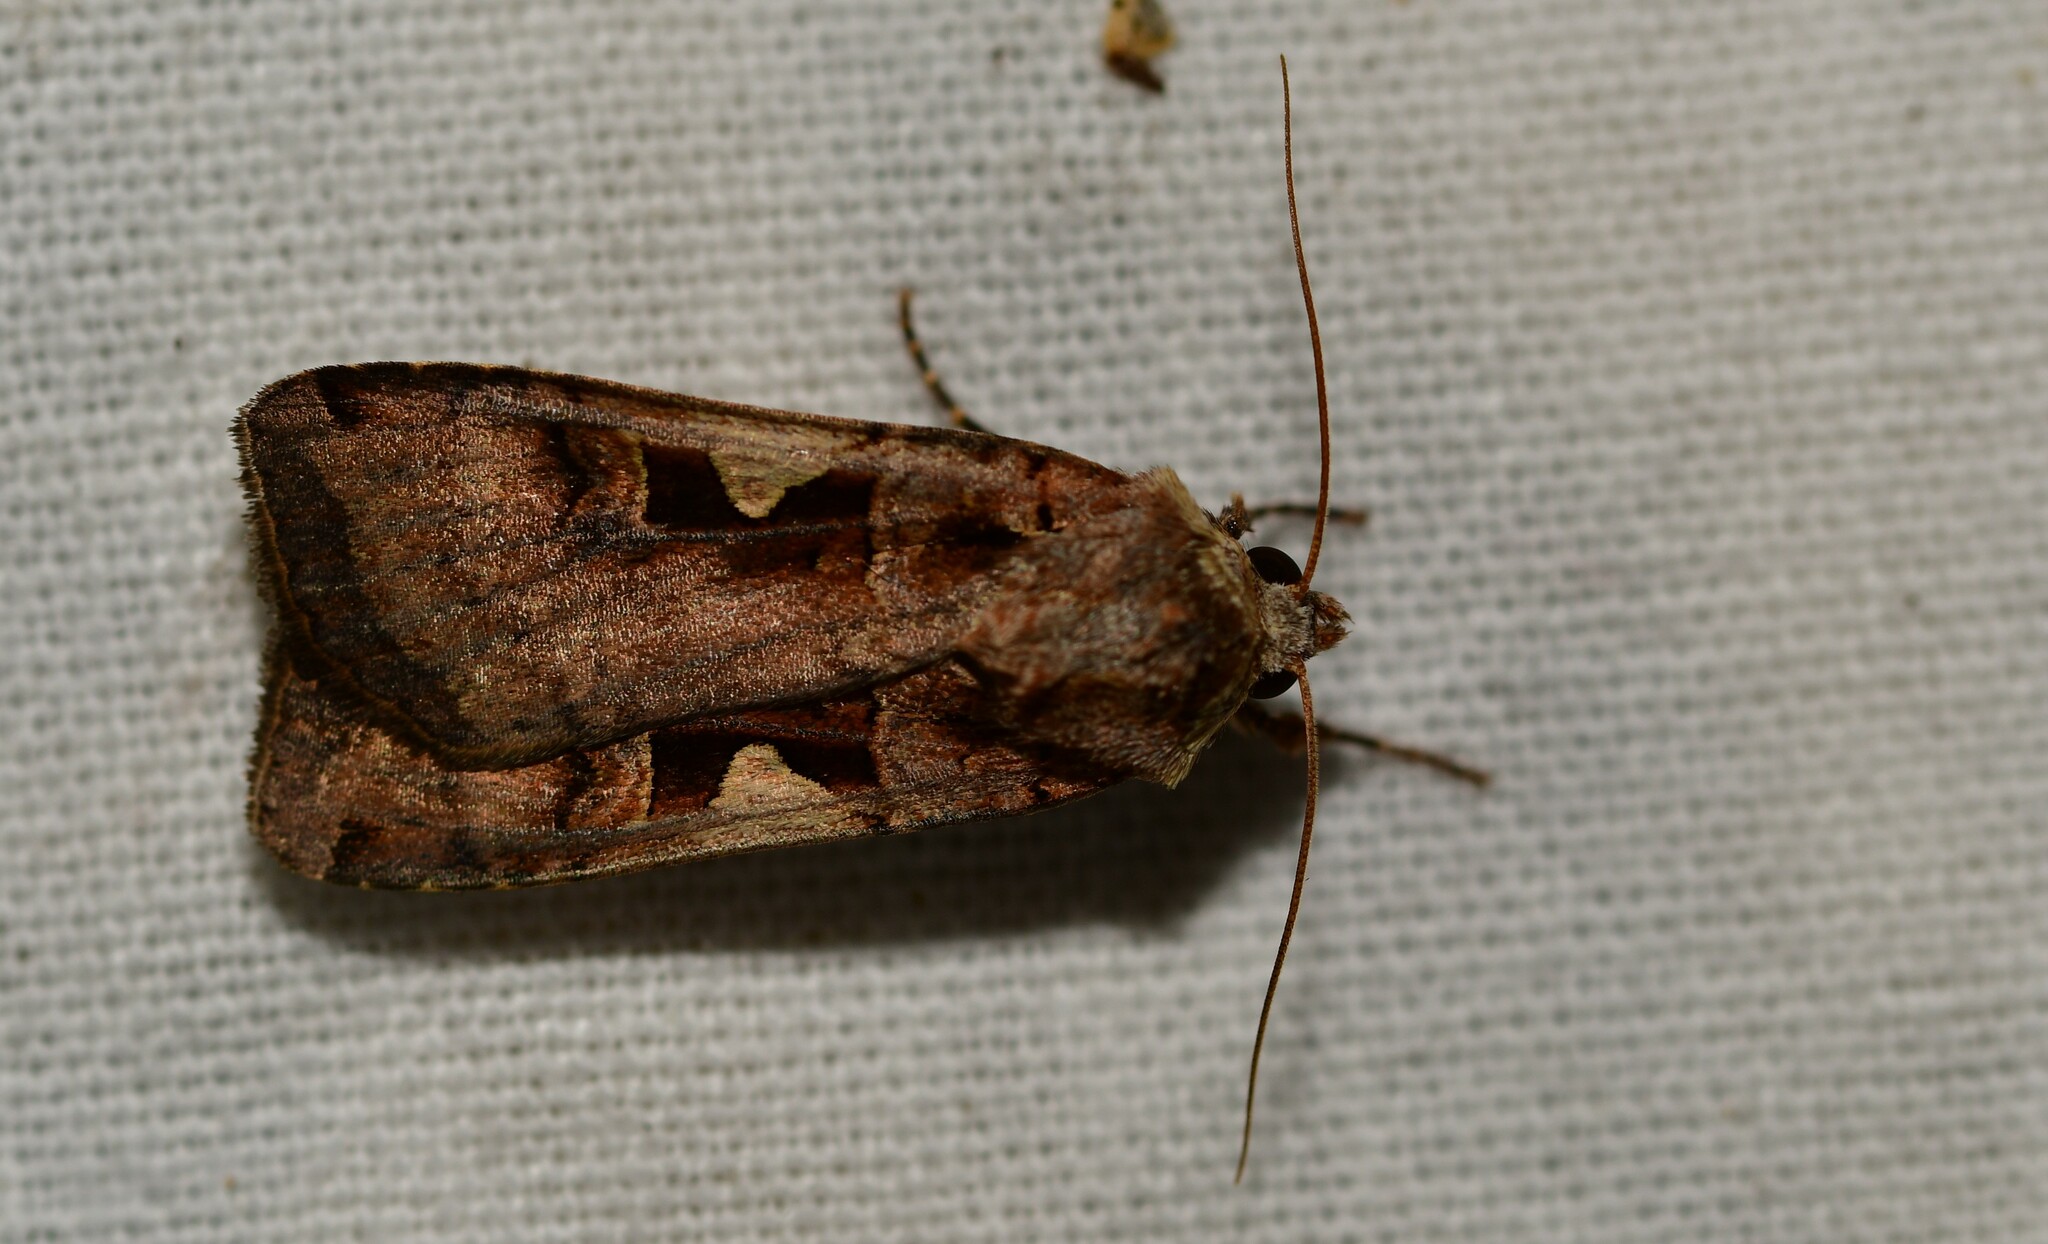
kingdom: Animalia
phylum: Arthropoda
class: Insecta
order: Lepidoptera
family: Noctuidae
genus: Xestia
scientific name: Xestia c-nigrum
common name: Setaceous hebrew character
